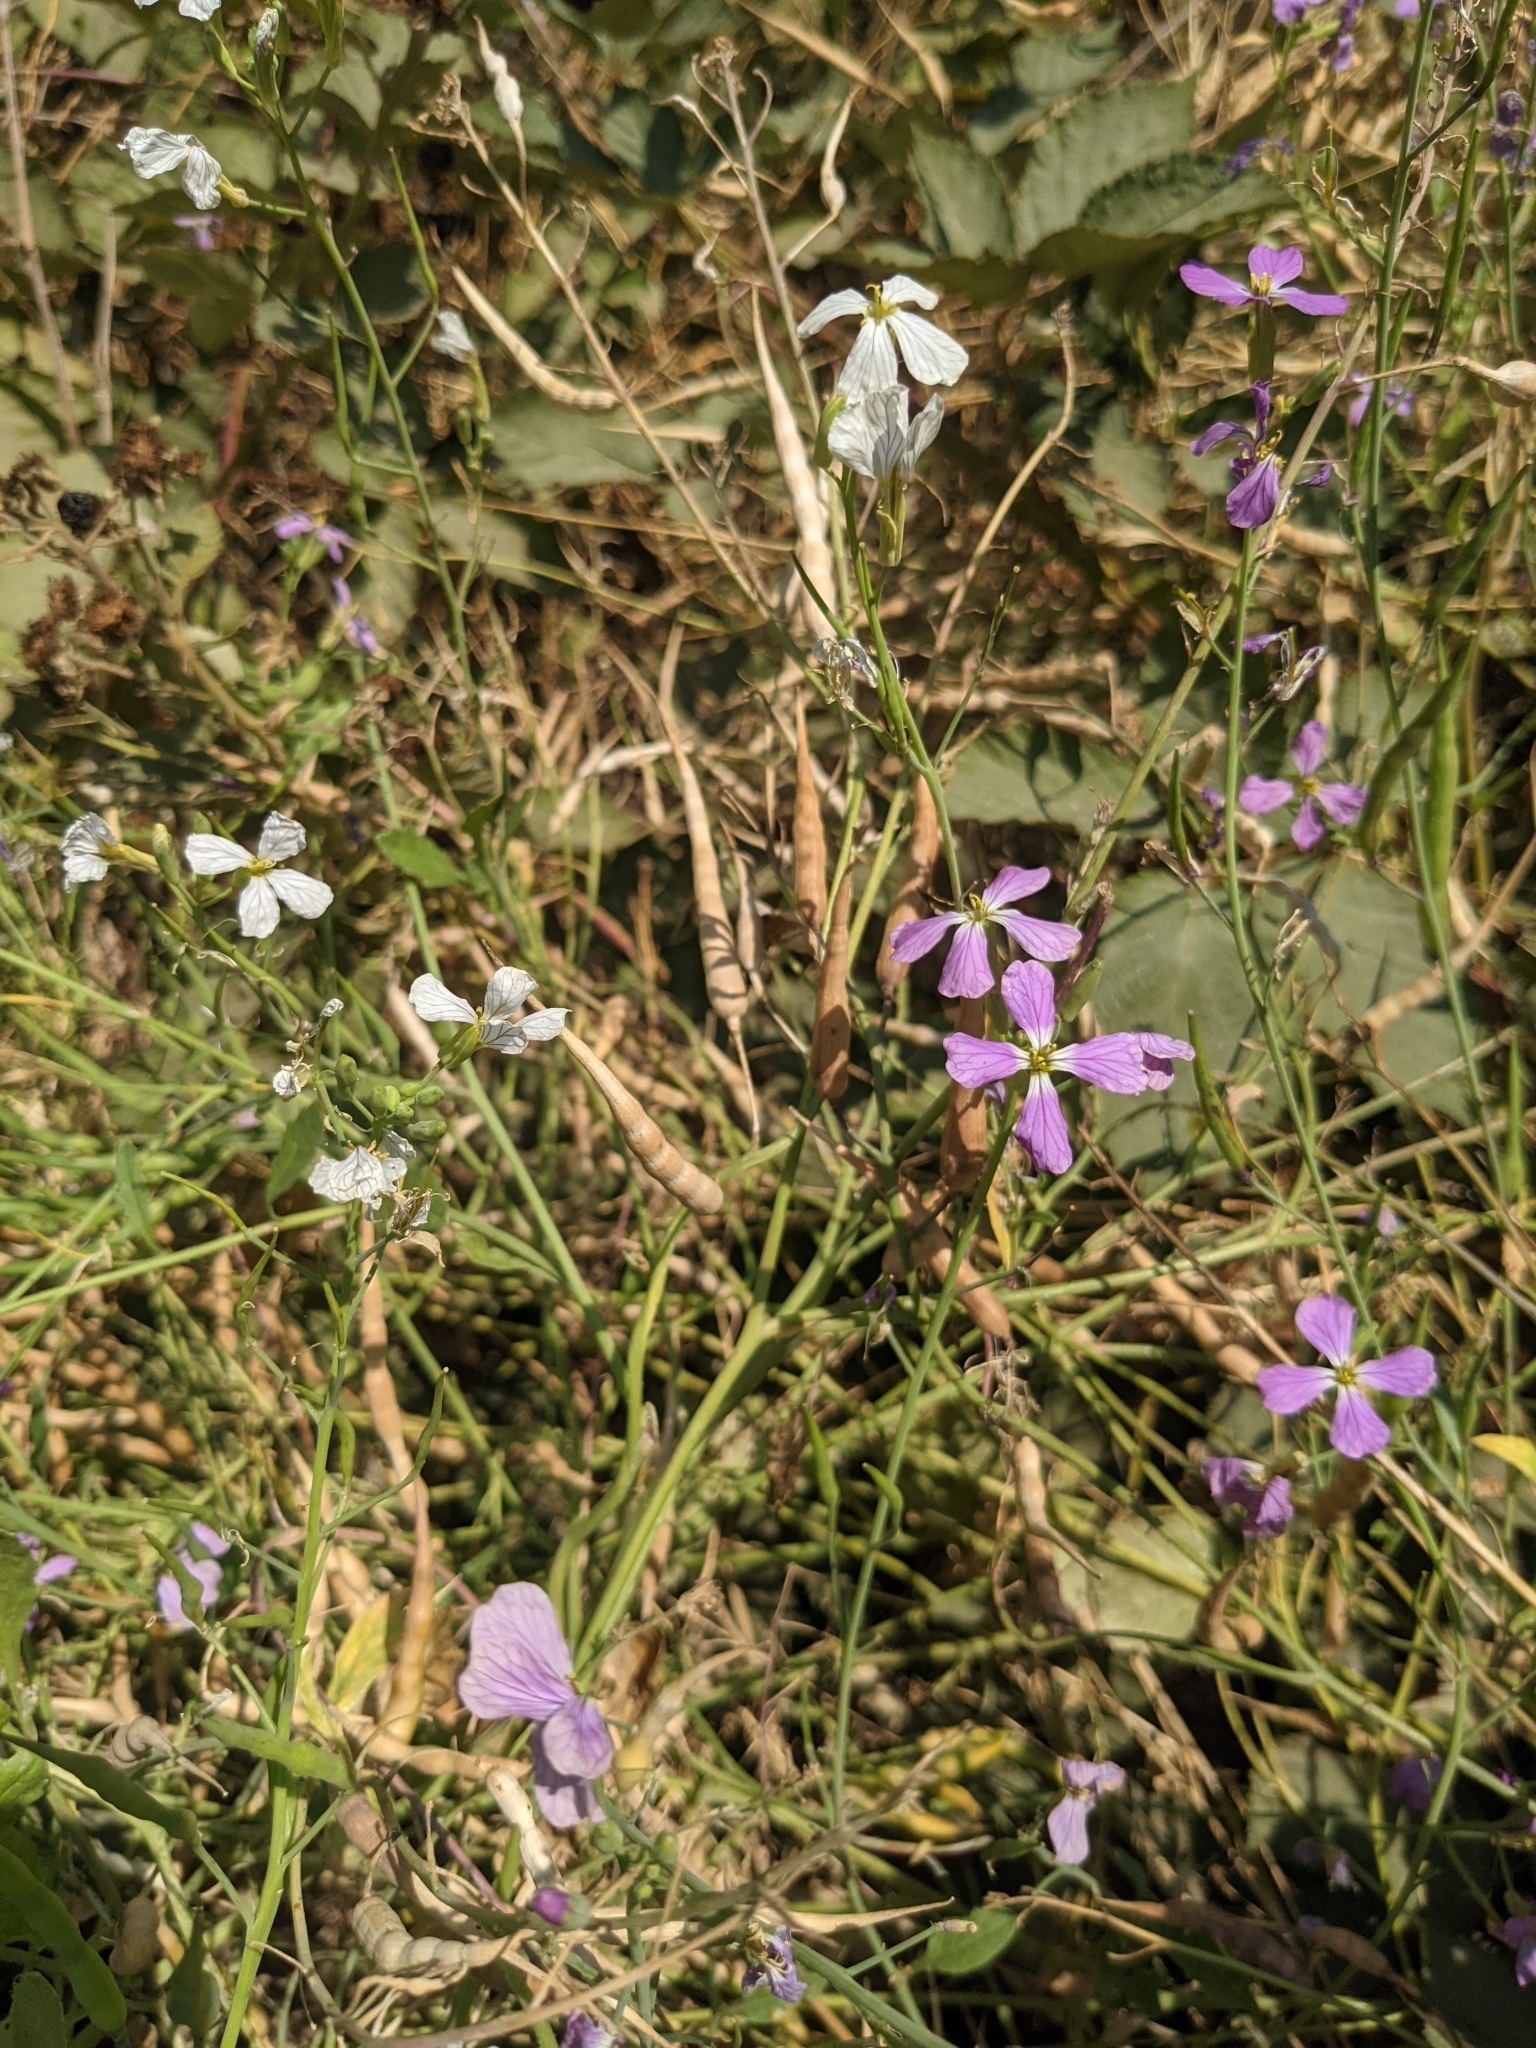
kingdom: Plantae
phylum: Tracheophyta
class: Magnoliopsida
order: Brassicales
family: Brassicaceae
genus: Raphanus
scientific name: Raphanus raphanistrum
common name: Wild radish
